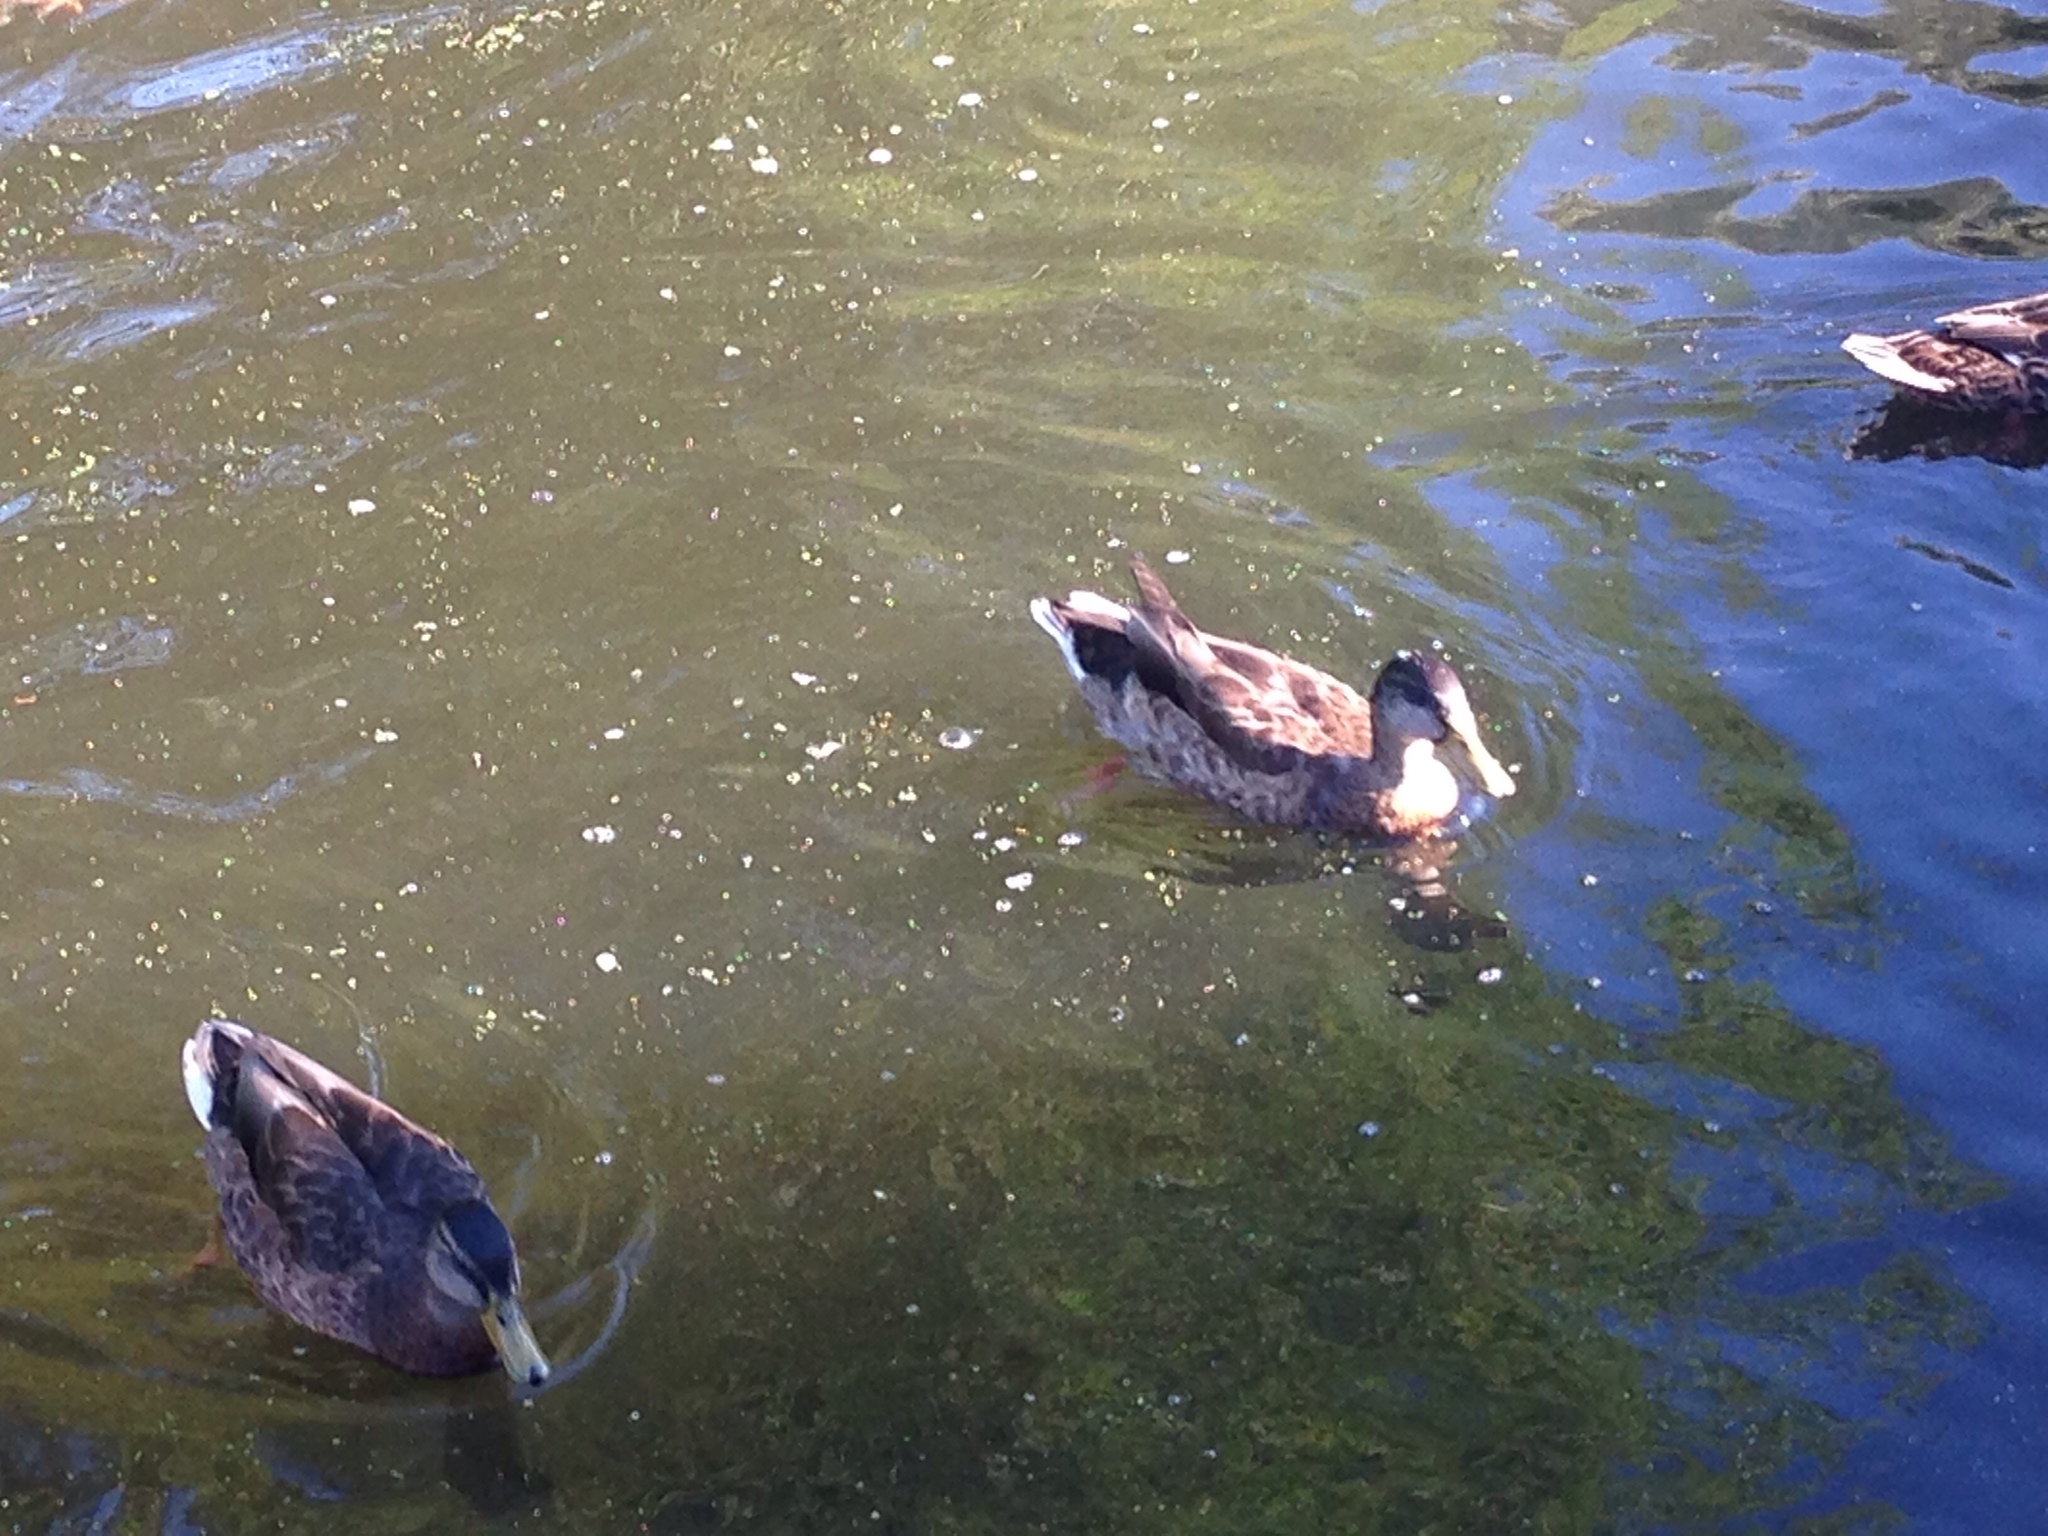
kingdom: Animalia
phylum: Chordata
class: Aves
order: Anseriformes
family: Anatidae
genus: Anas
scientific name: Anas platyrhynchos
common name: Mallard
